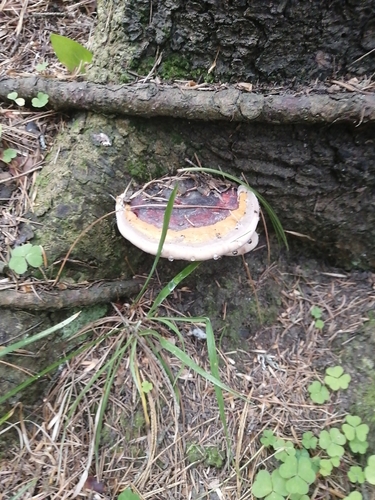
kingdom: Fungi
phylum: Basidiomycota
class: Agaricomycetes
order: Polyporales
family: Fomitopsidaceae
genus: Fomitopsis
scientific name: Fomitopsis pinicola
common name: Red-belted bracket
